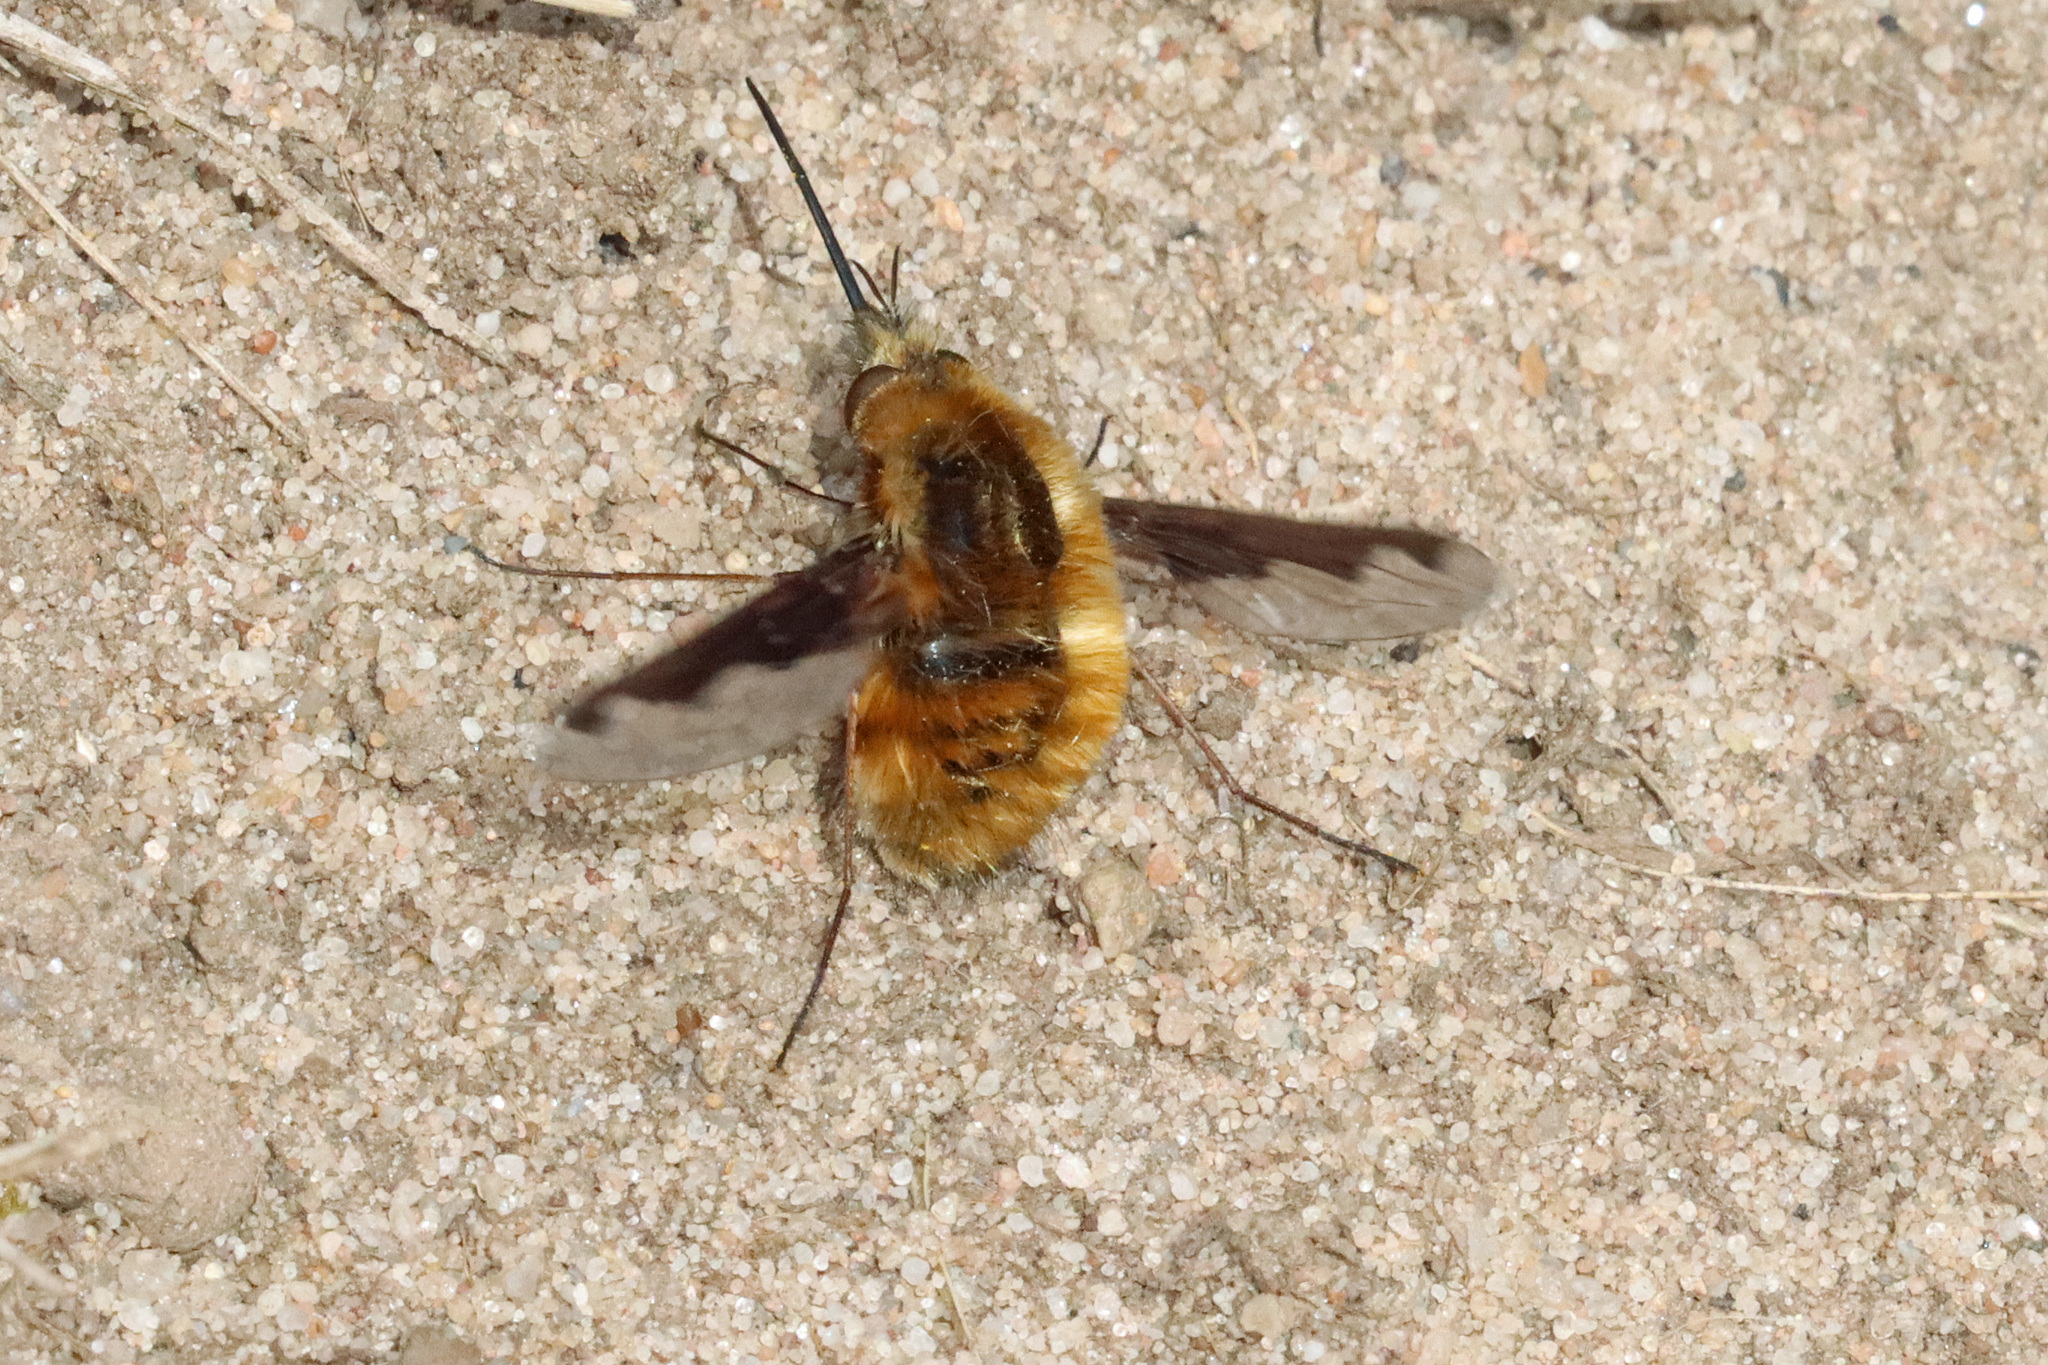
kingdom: Animalia
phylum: Arthropoda
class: Insecta
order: Diptera
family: Bombyliidae
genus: Bombylius
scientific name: Bombylius major
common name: Bee fly
